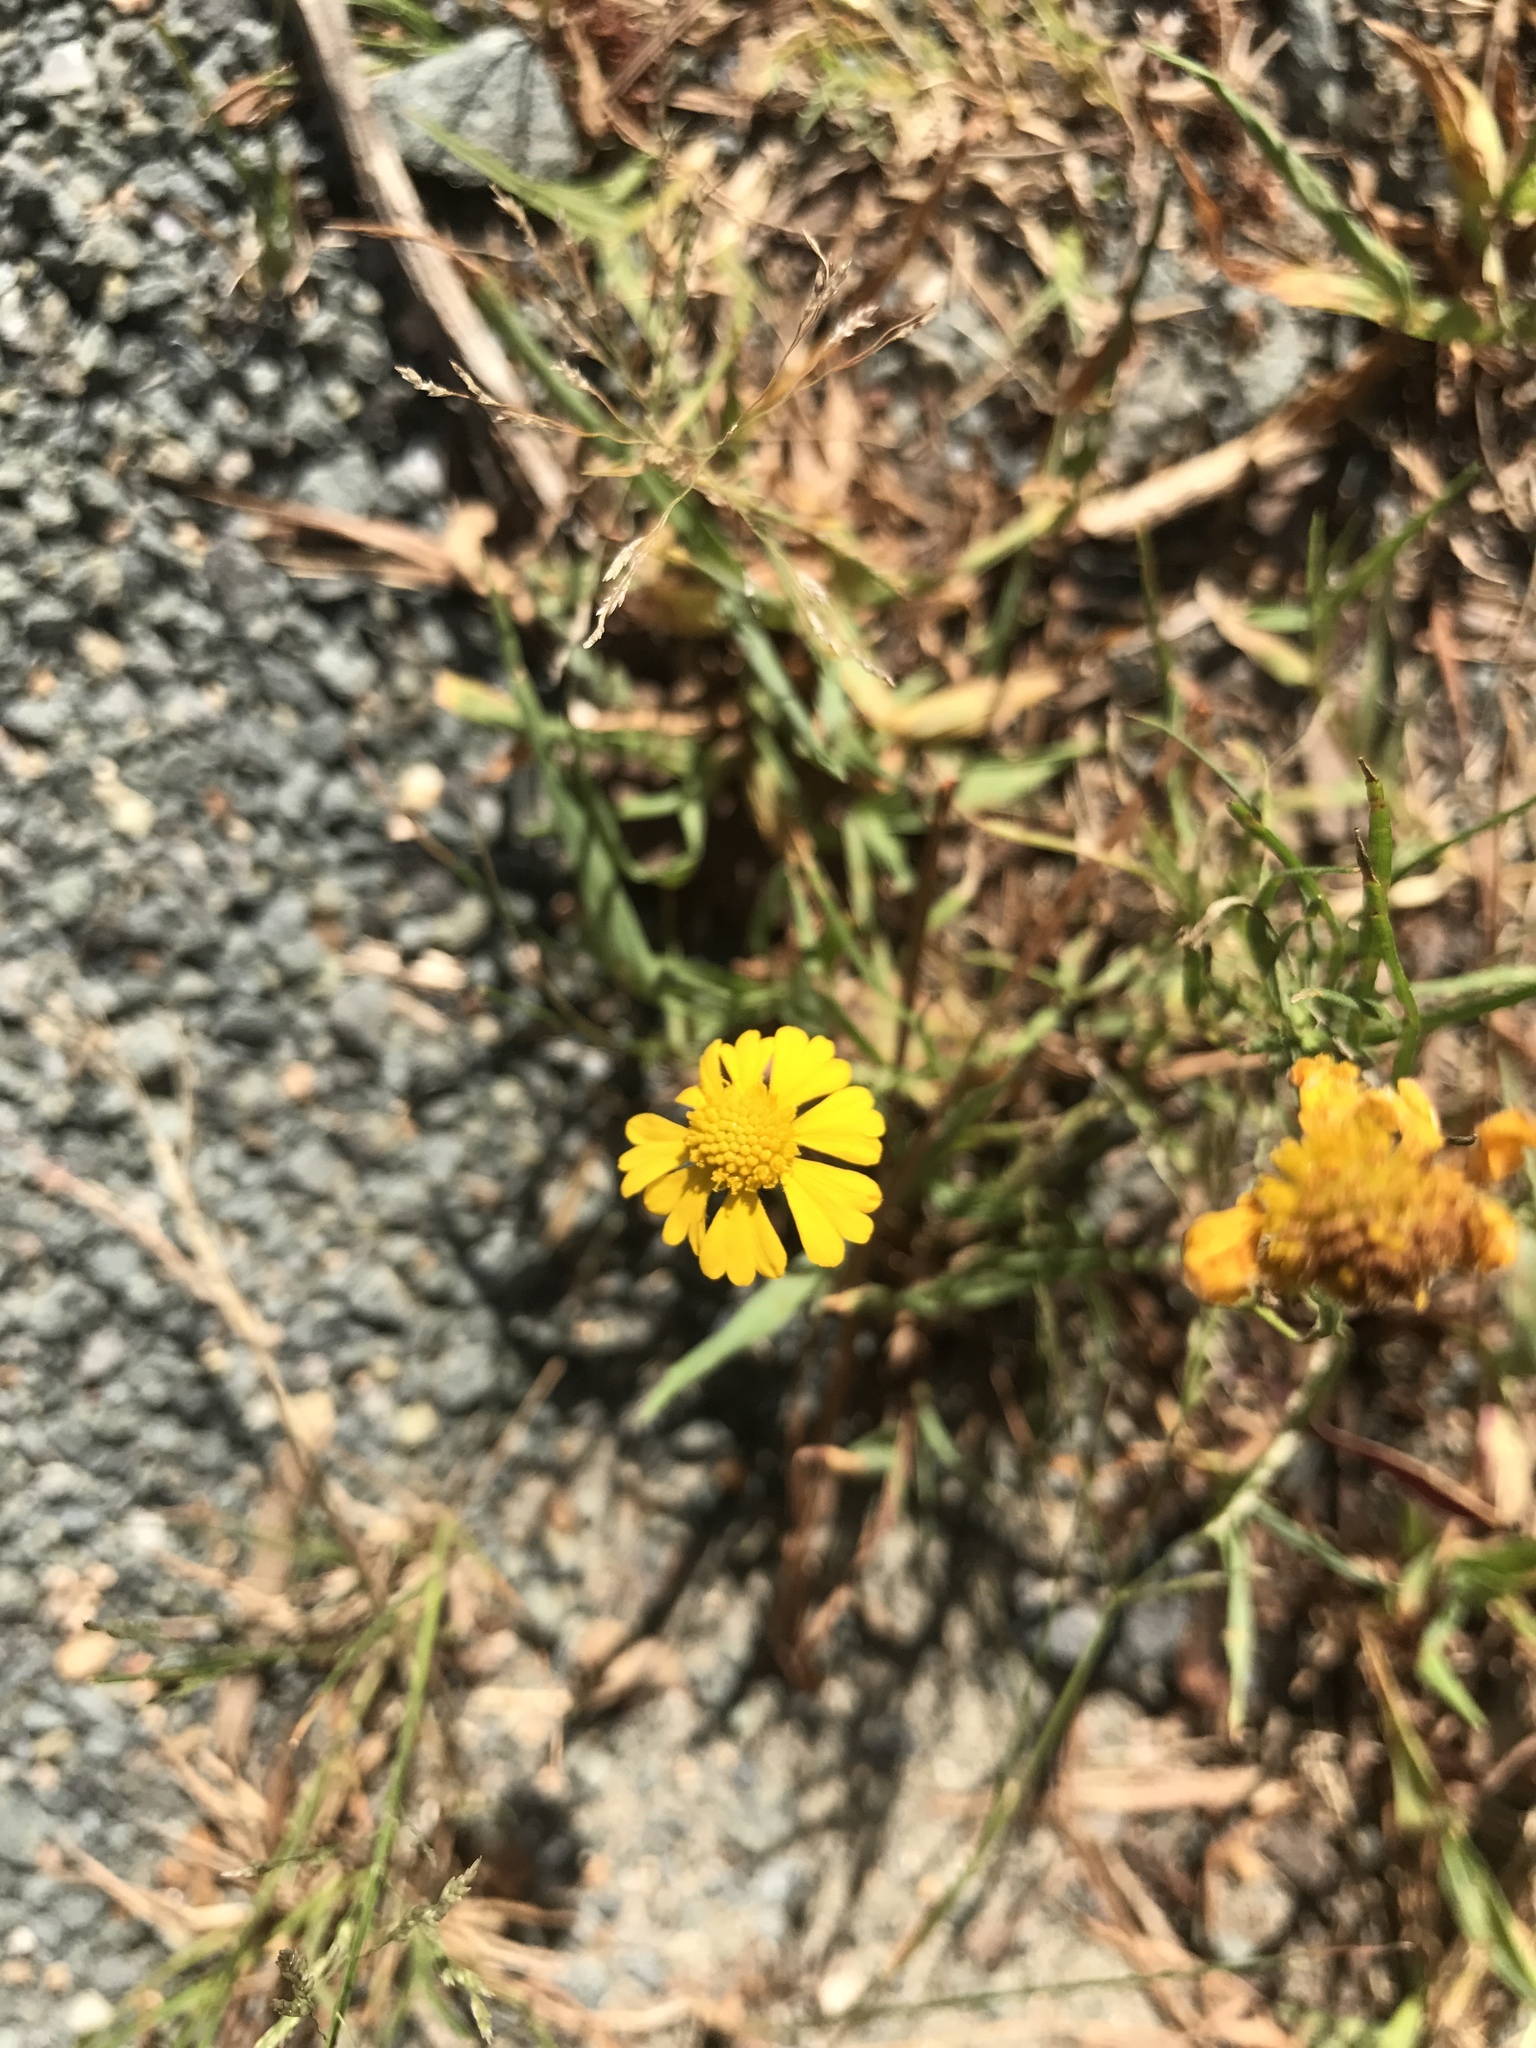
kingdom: Plantae
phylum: Tracheophyta
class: Magnoliopsida
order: Asterales
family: Asteraceae
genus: Helenium
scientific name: Helenium amarum
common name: Bitter sneezeweed
